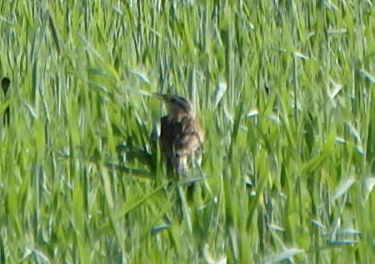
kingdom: Animalia
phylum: Chordata
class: Aves
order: Passeriformes
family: Icteridae
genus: Sturnella
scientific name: Sturnella magna
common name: Eastern meadowlark
